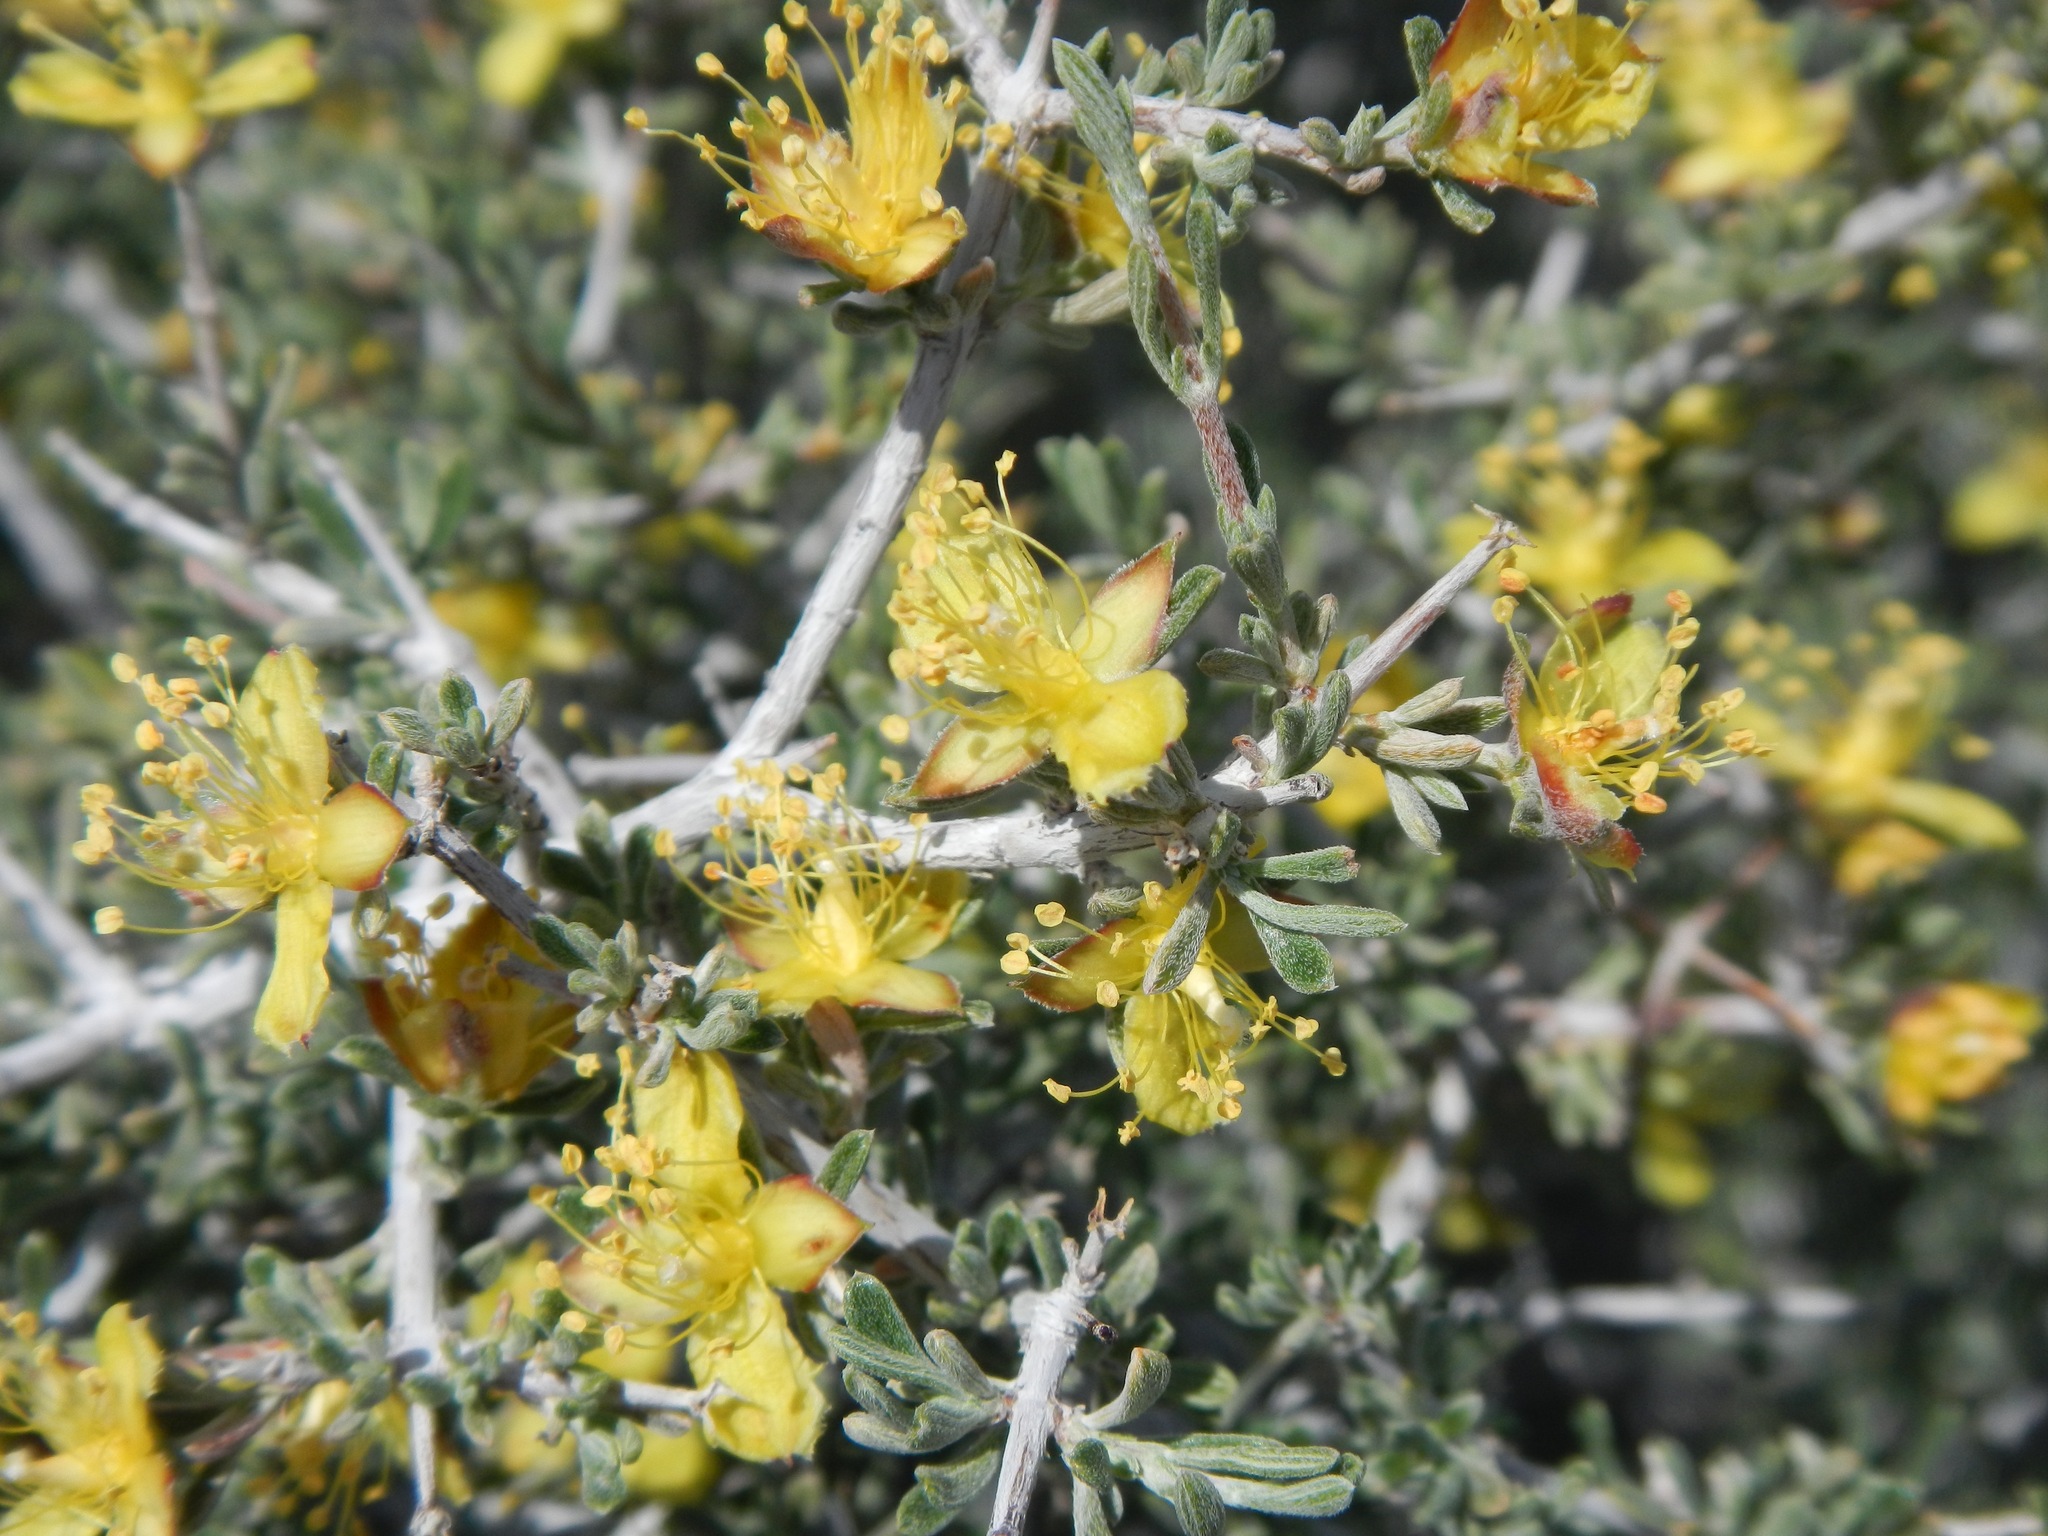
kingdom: Plantae
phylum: Tracheophyta
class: Magnoliopsida
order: Rosales
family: Rosaceae
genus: Coleogyne
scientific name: Coleogyne ramosissima
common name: Blackbrush
